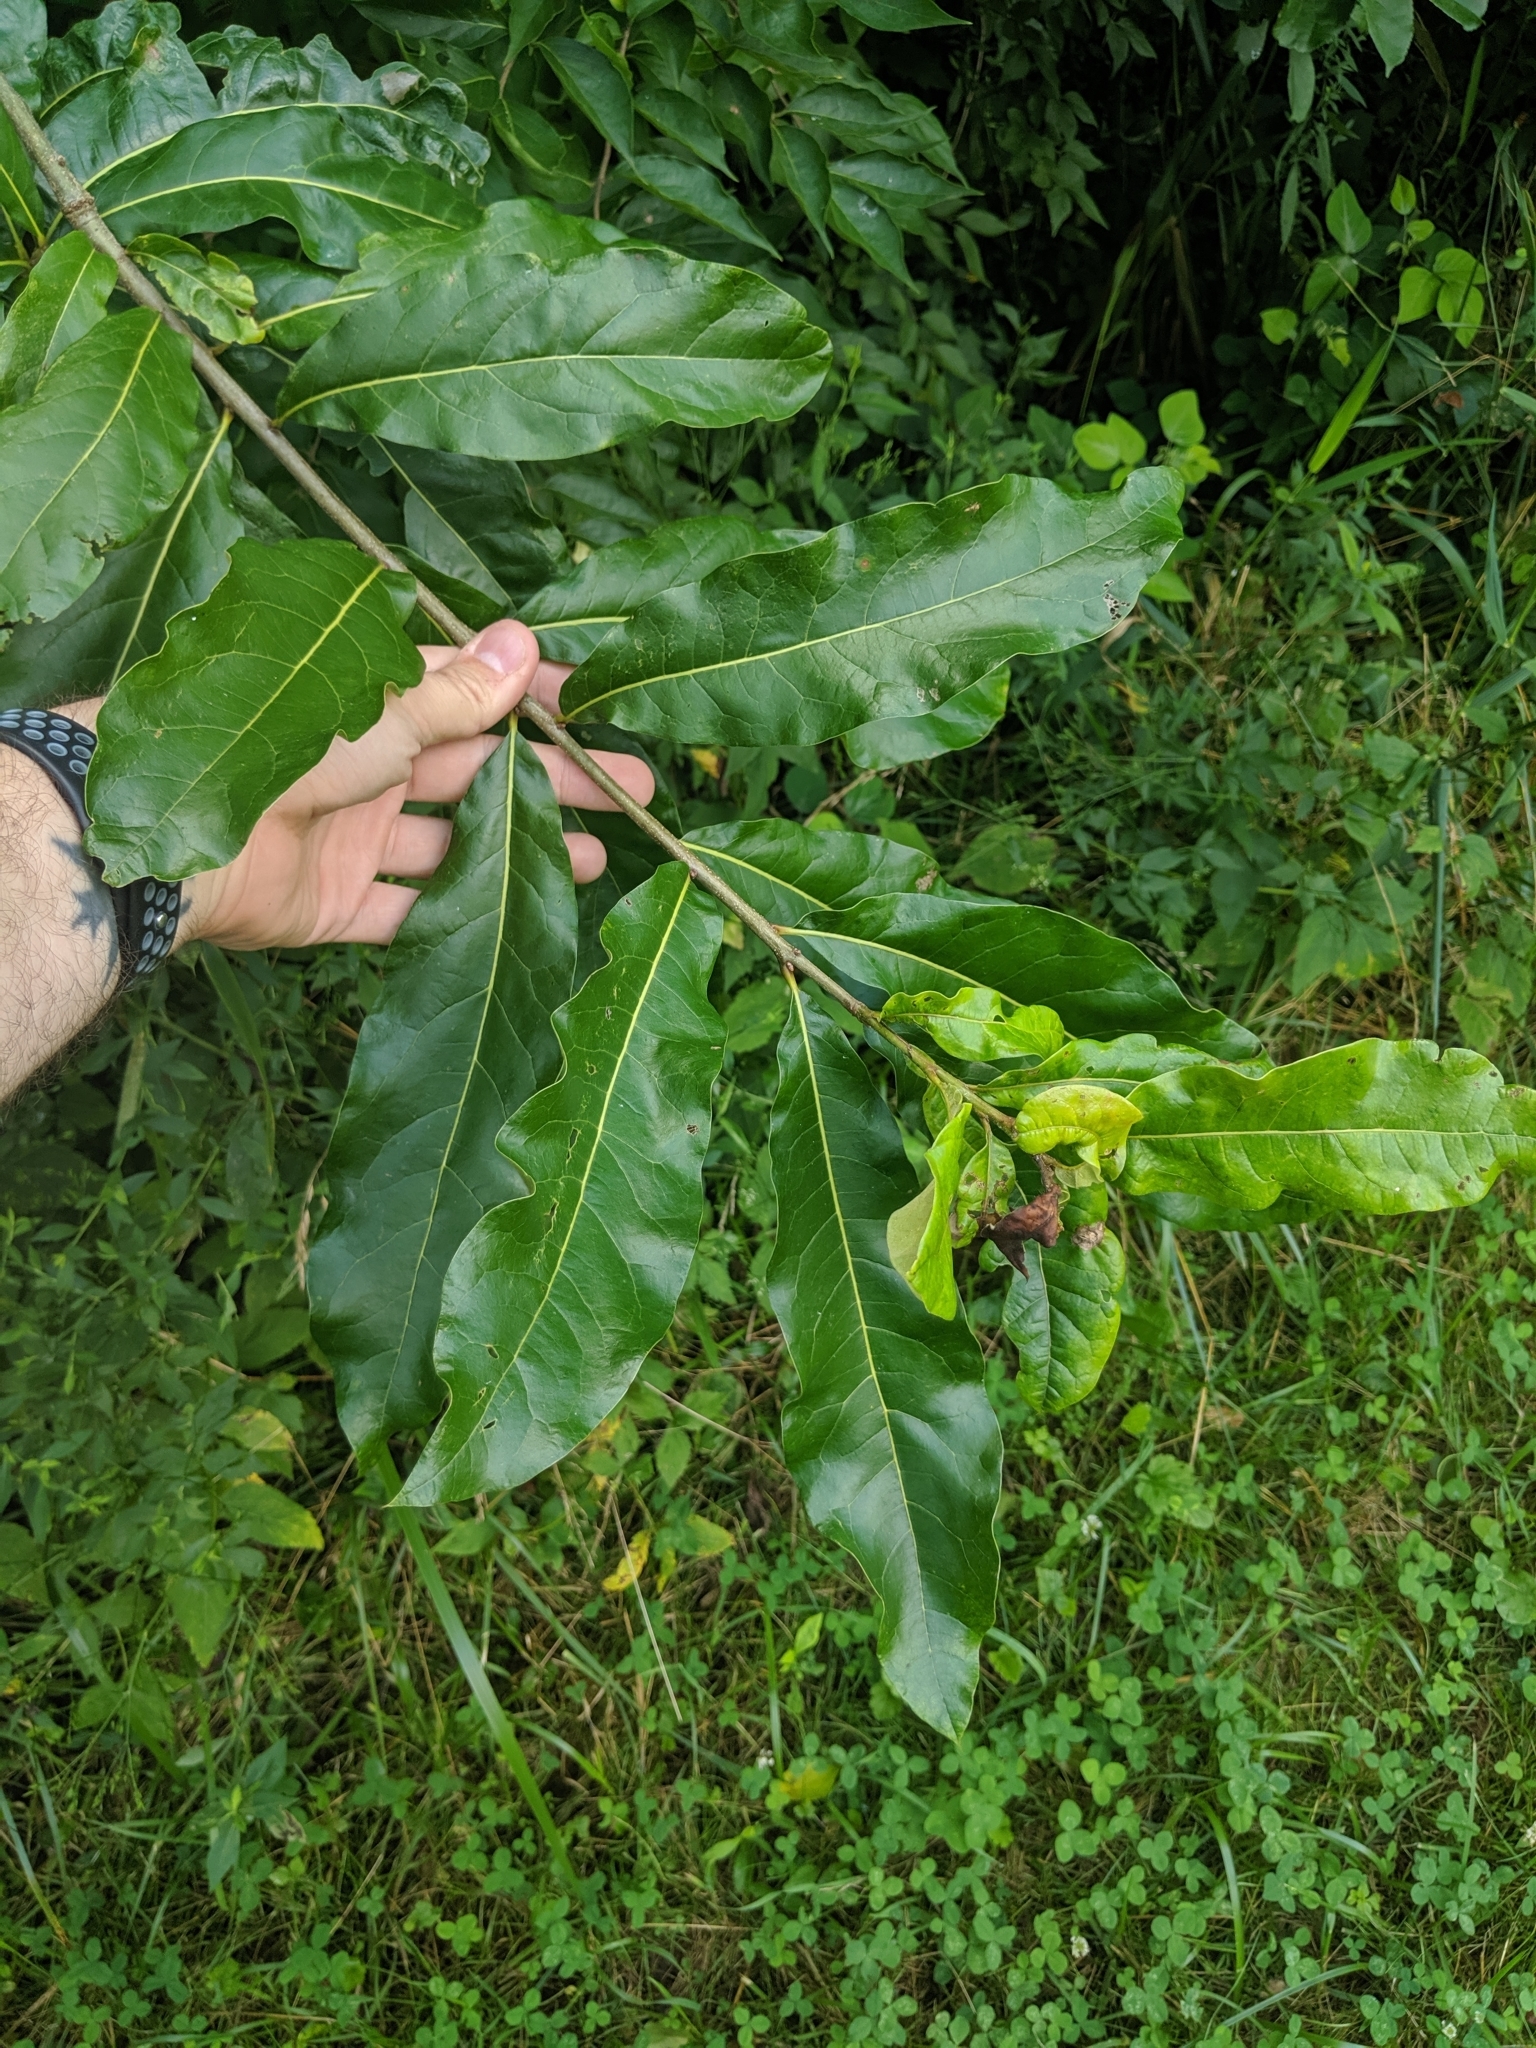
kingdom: Plantae
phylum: Tracheophyta
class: Magnoliopsida
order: Fagales
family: Fagaceae
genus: Quercus
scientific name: Quercus imbricaria
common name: Shingle oak
